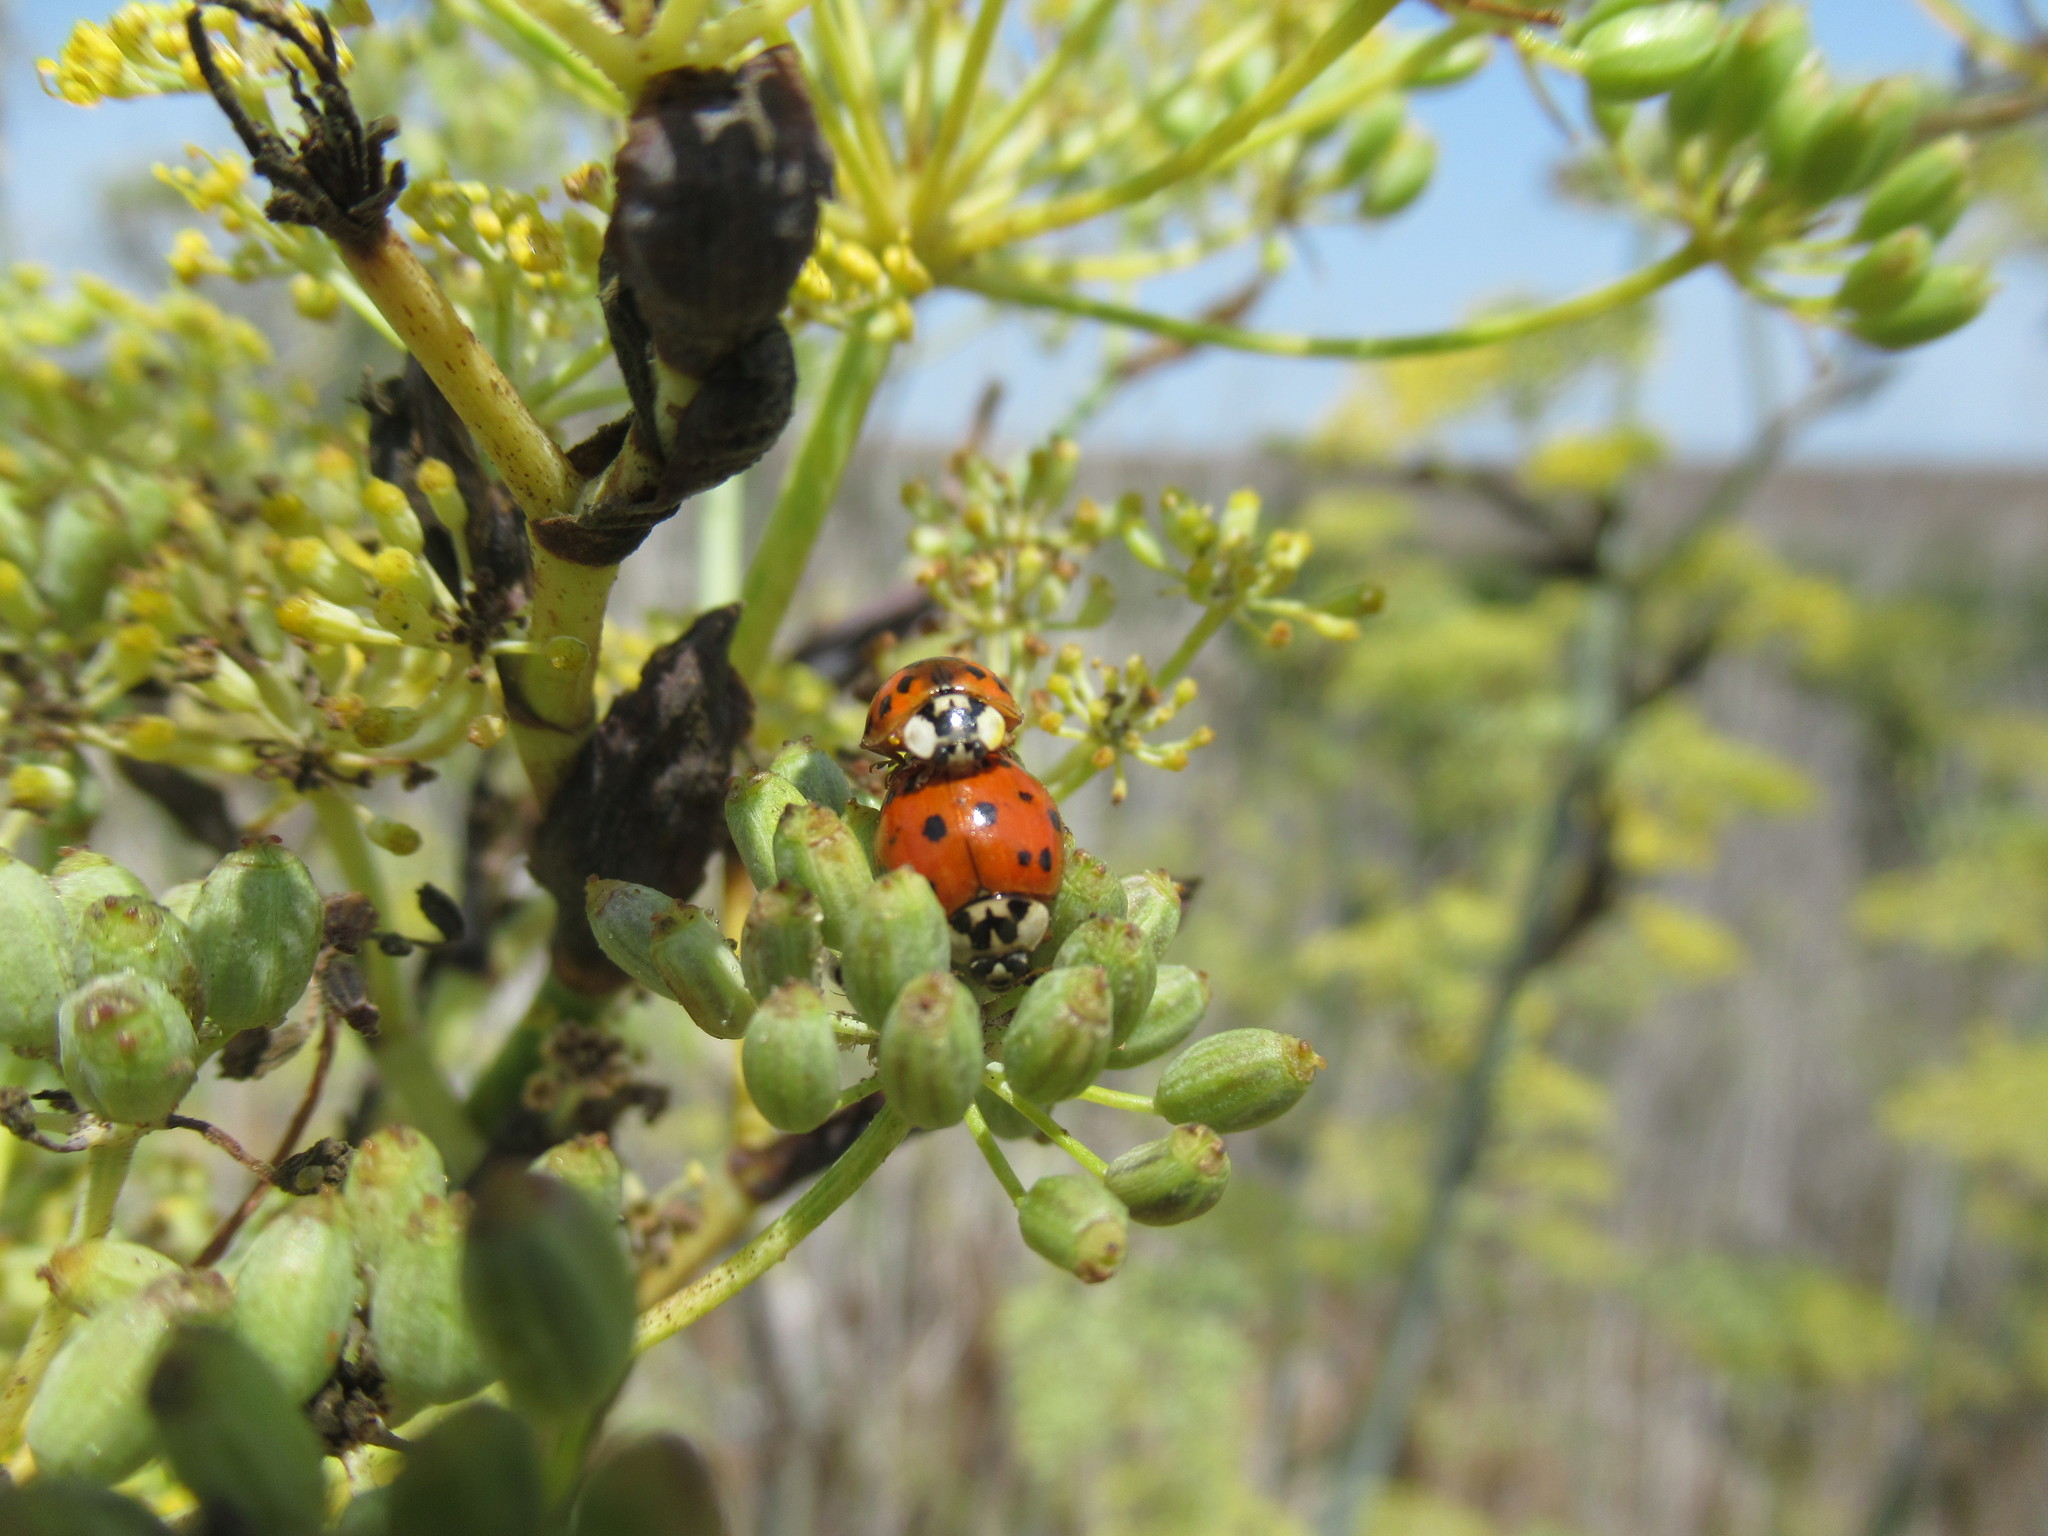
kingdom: Animalia
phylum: Arthropoda
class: Insecta
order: Coleoptera
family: Coccinellidae
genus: Harmonia
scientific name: Harmonia axyridis
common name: Harlequin ladybird
